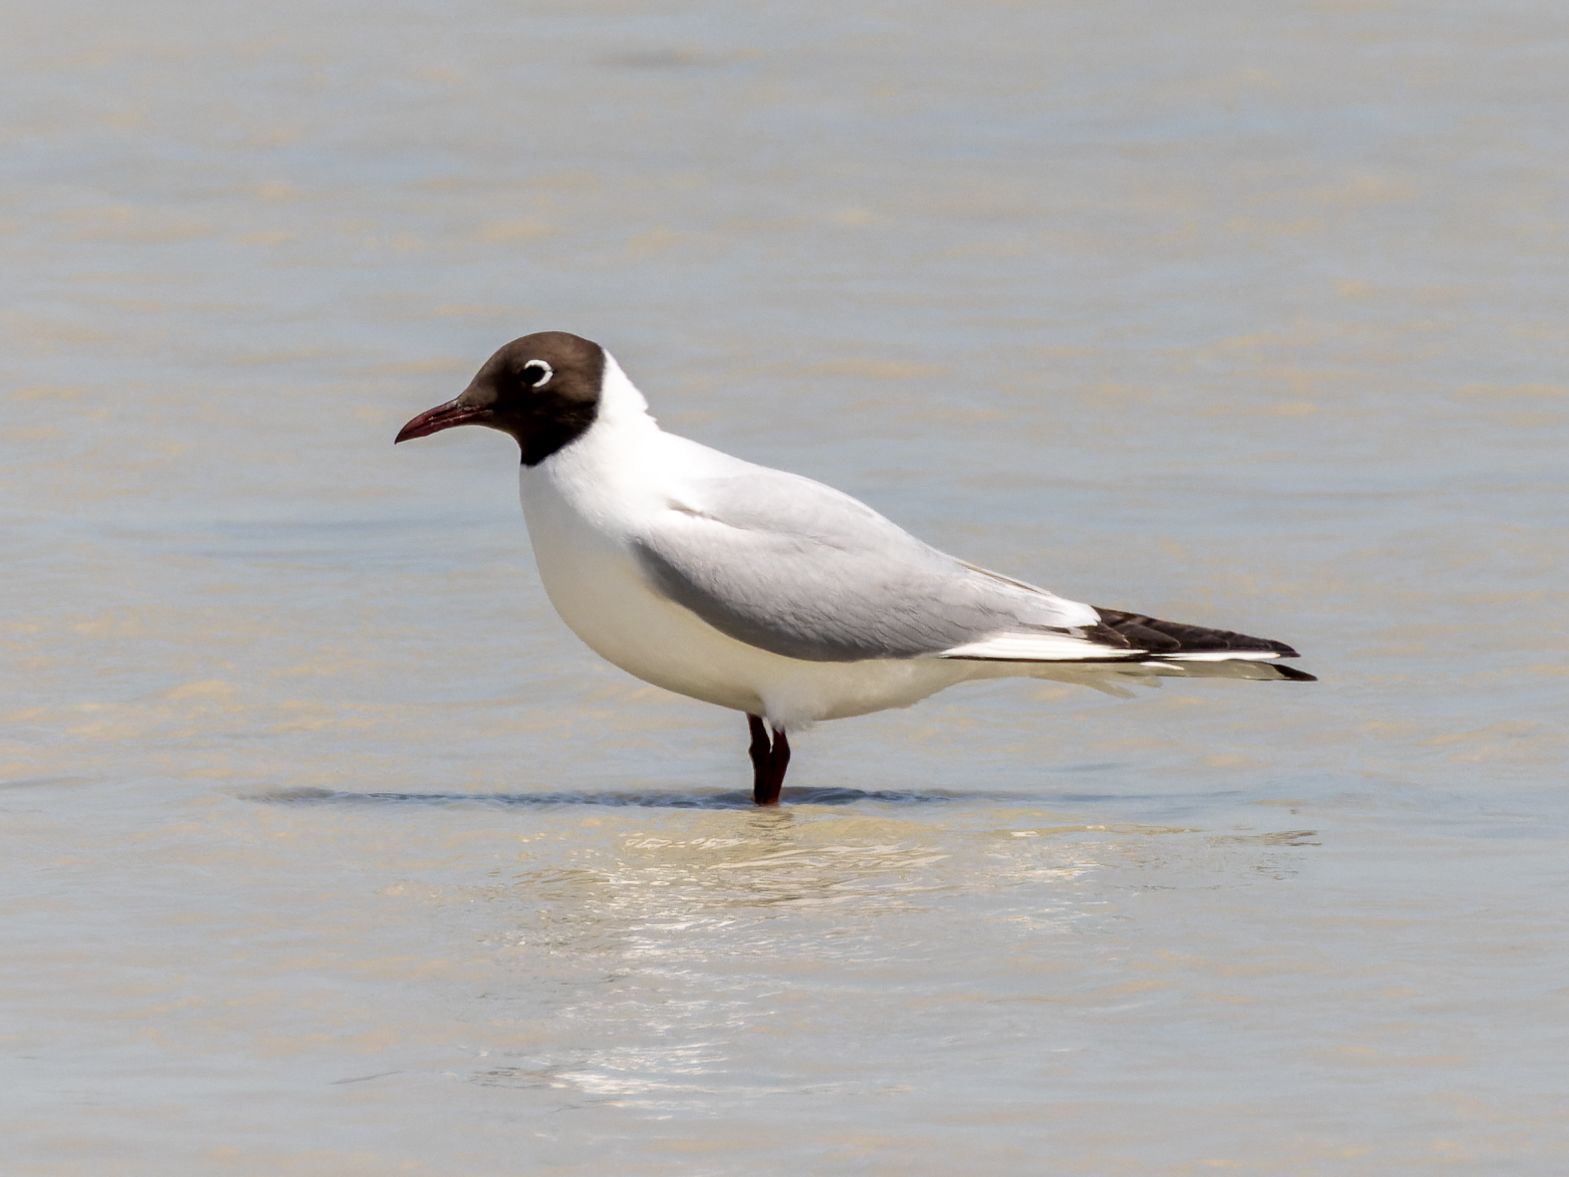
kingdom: Animalia
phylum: Chordata
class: Aves
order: Charadriiformes
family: Laridae
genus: Chroicocephalus
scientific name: Chroicocephalus ridibundus
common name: Black-headed gull
